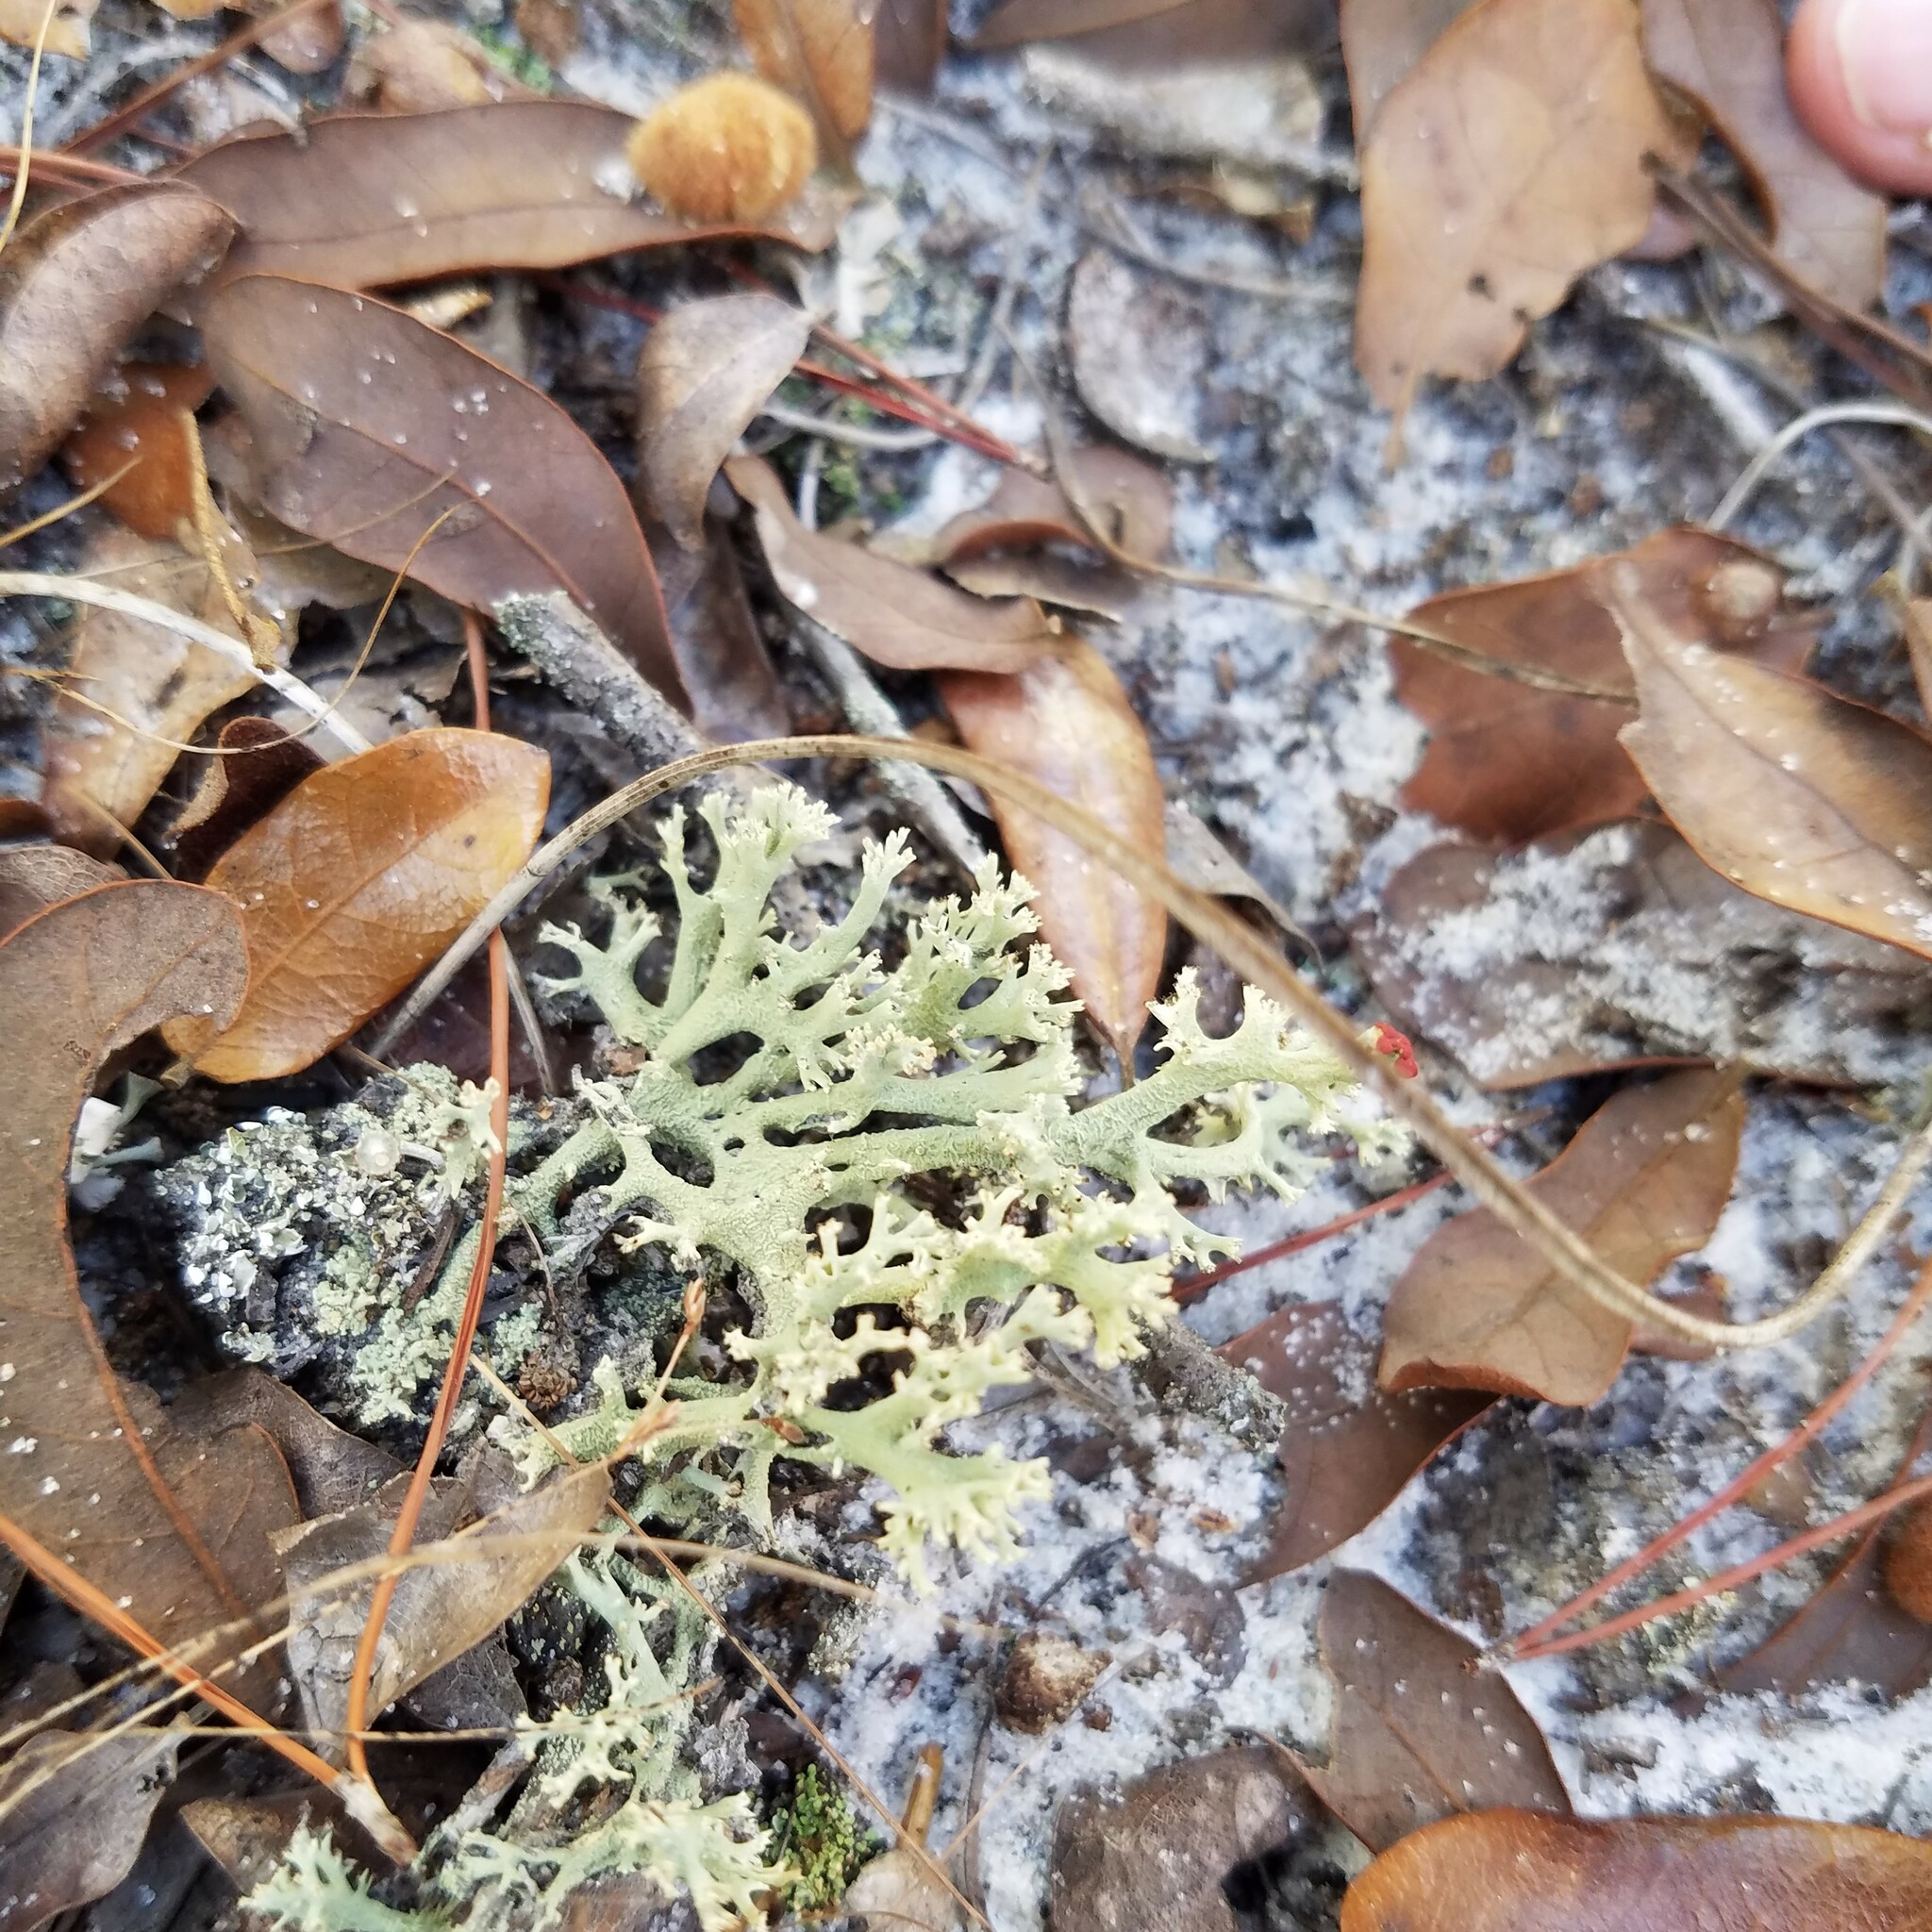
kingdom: Fungi
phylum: Ascomycota
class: Lecanoromycetes
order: Lecanorales
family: Cladoniaceae
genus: Cladonia
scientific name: Cladonia leporina
